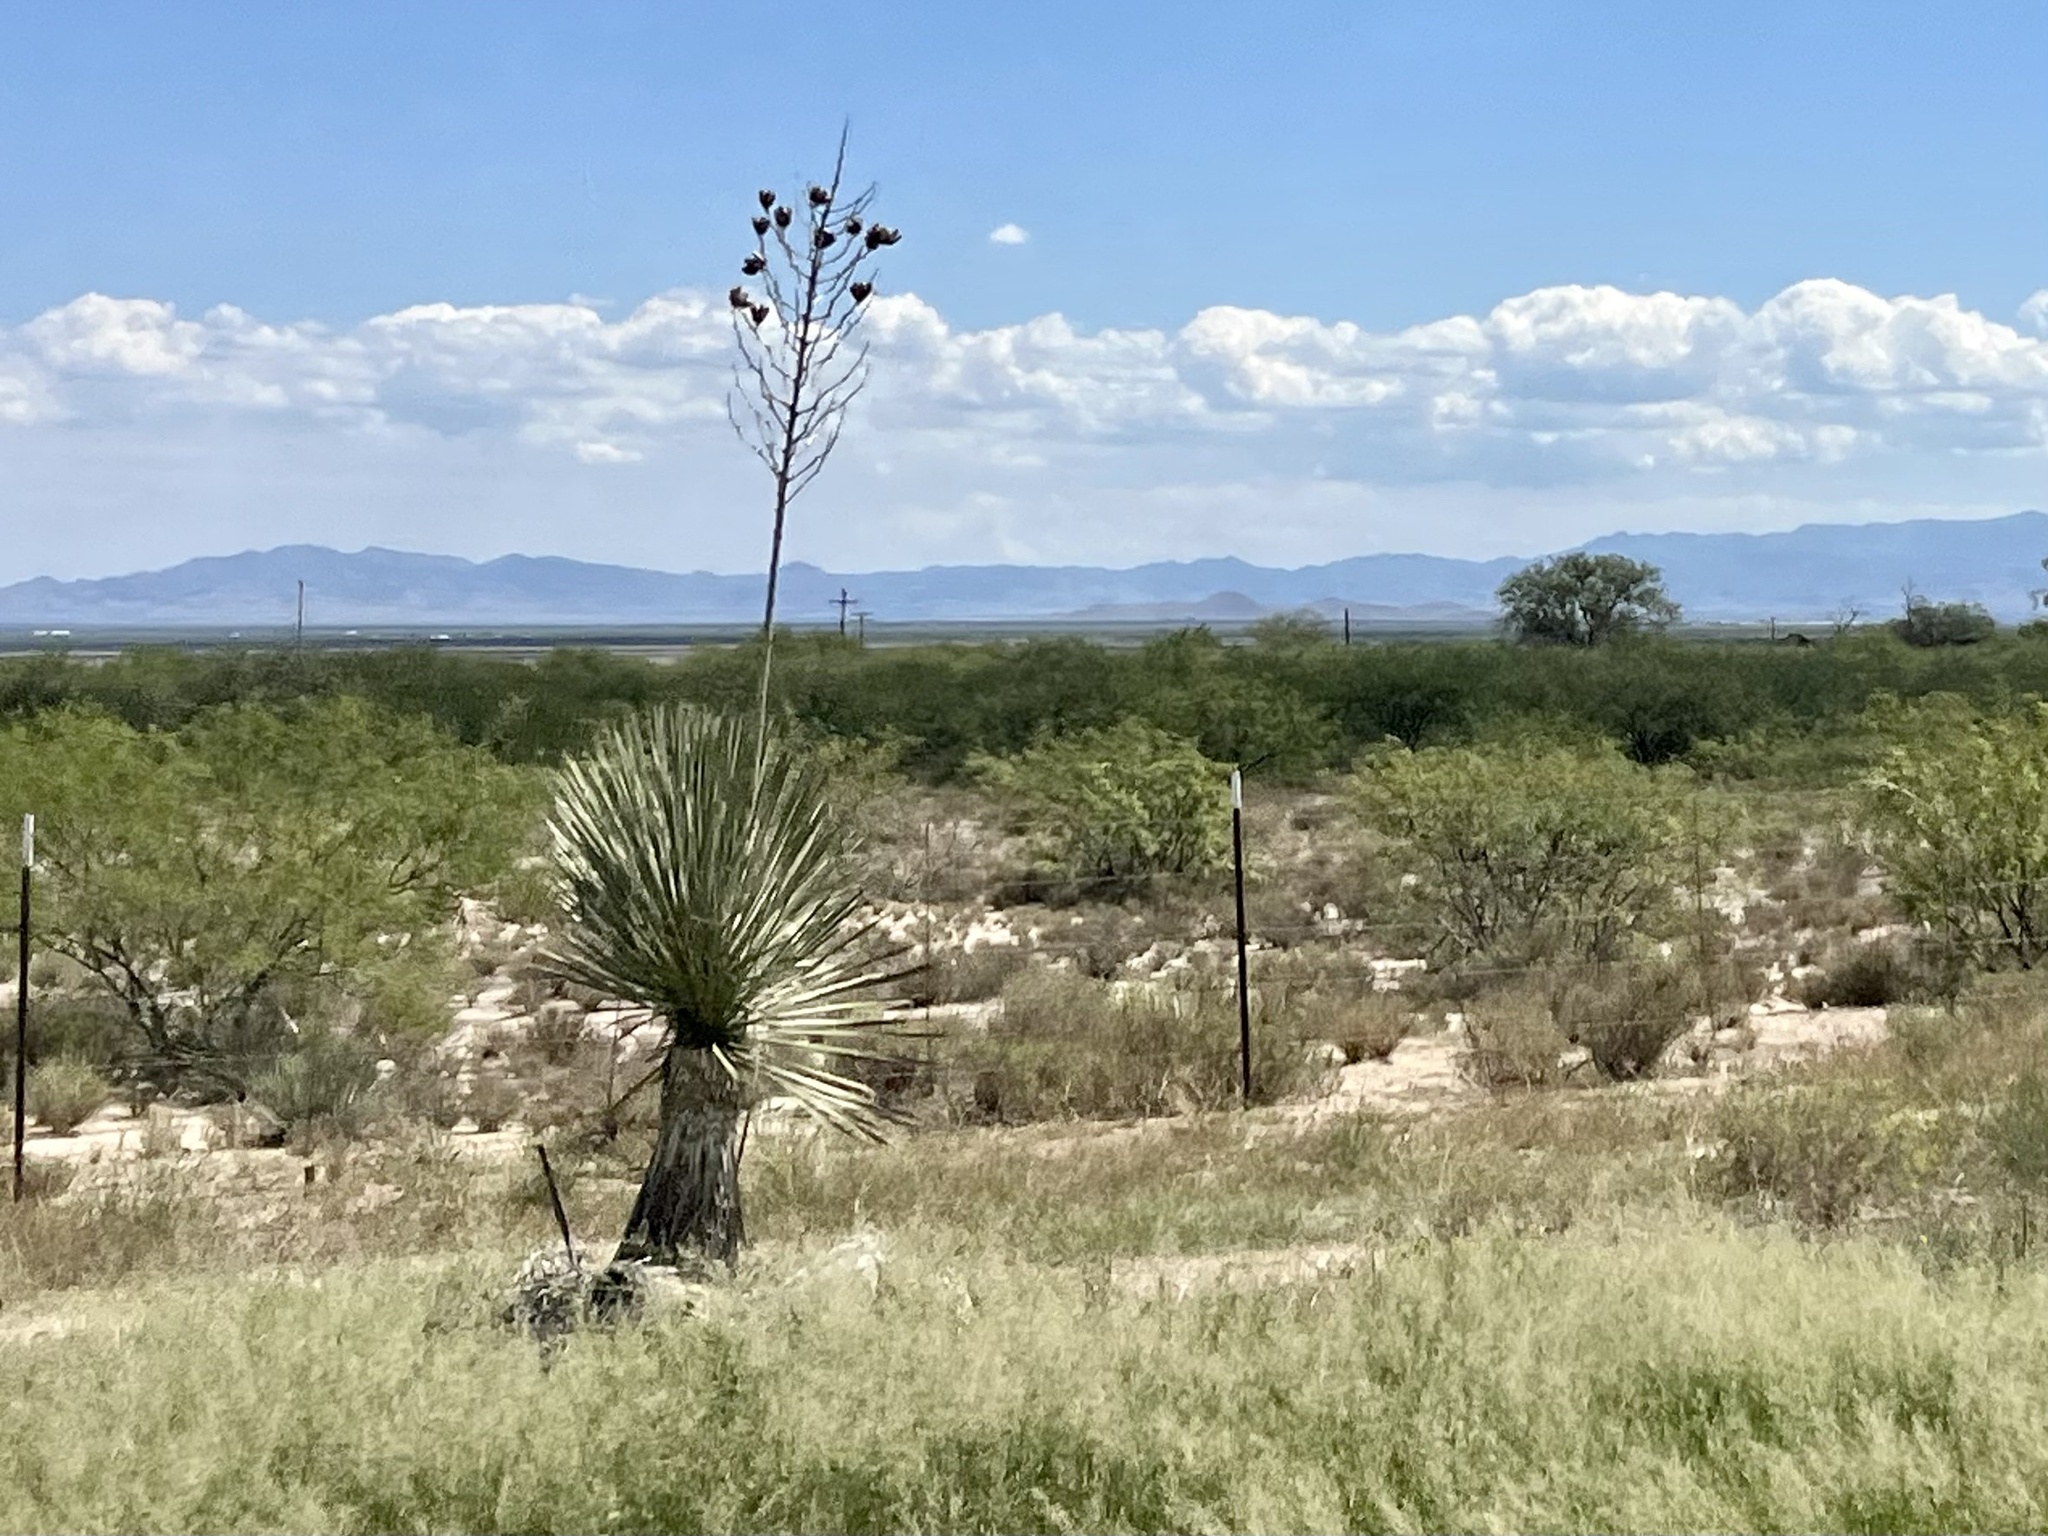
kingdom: Plantae
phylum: Tracheophyta
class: Liliopsida
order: Asparagales
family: Asparagaceae
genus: Yucca
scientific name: Yucca elata
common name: Palmella
